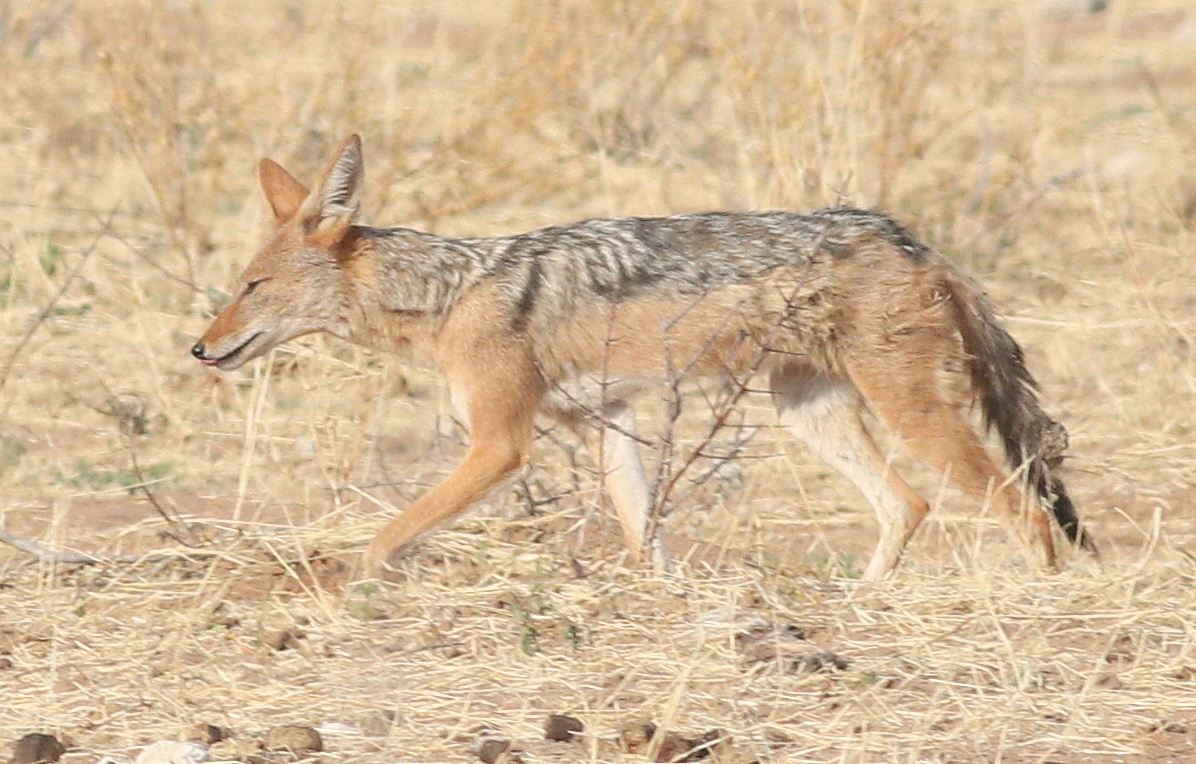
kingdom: Animalia
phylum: Chordata
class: Mammalia
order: Carnivora
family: Canidae
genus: Lupulella
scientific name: Lupulella
